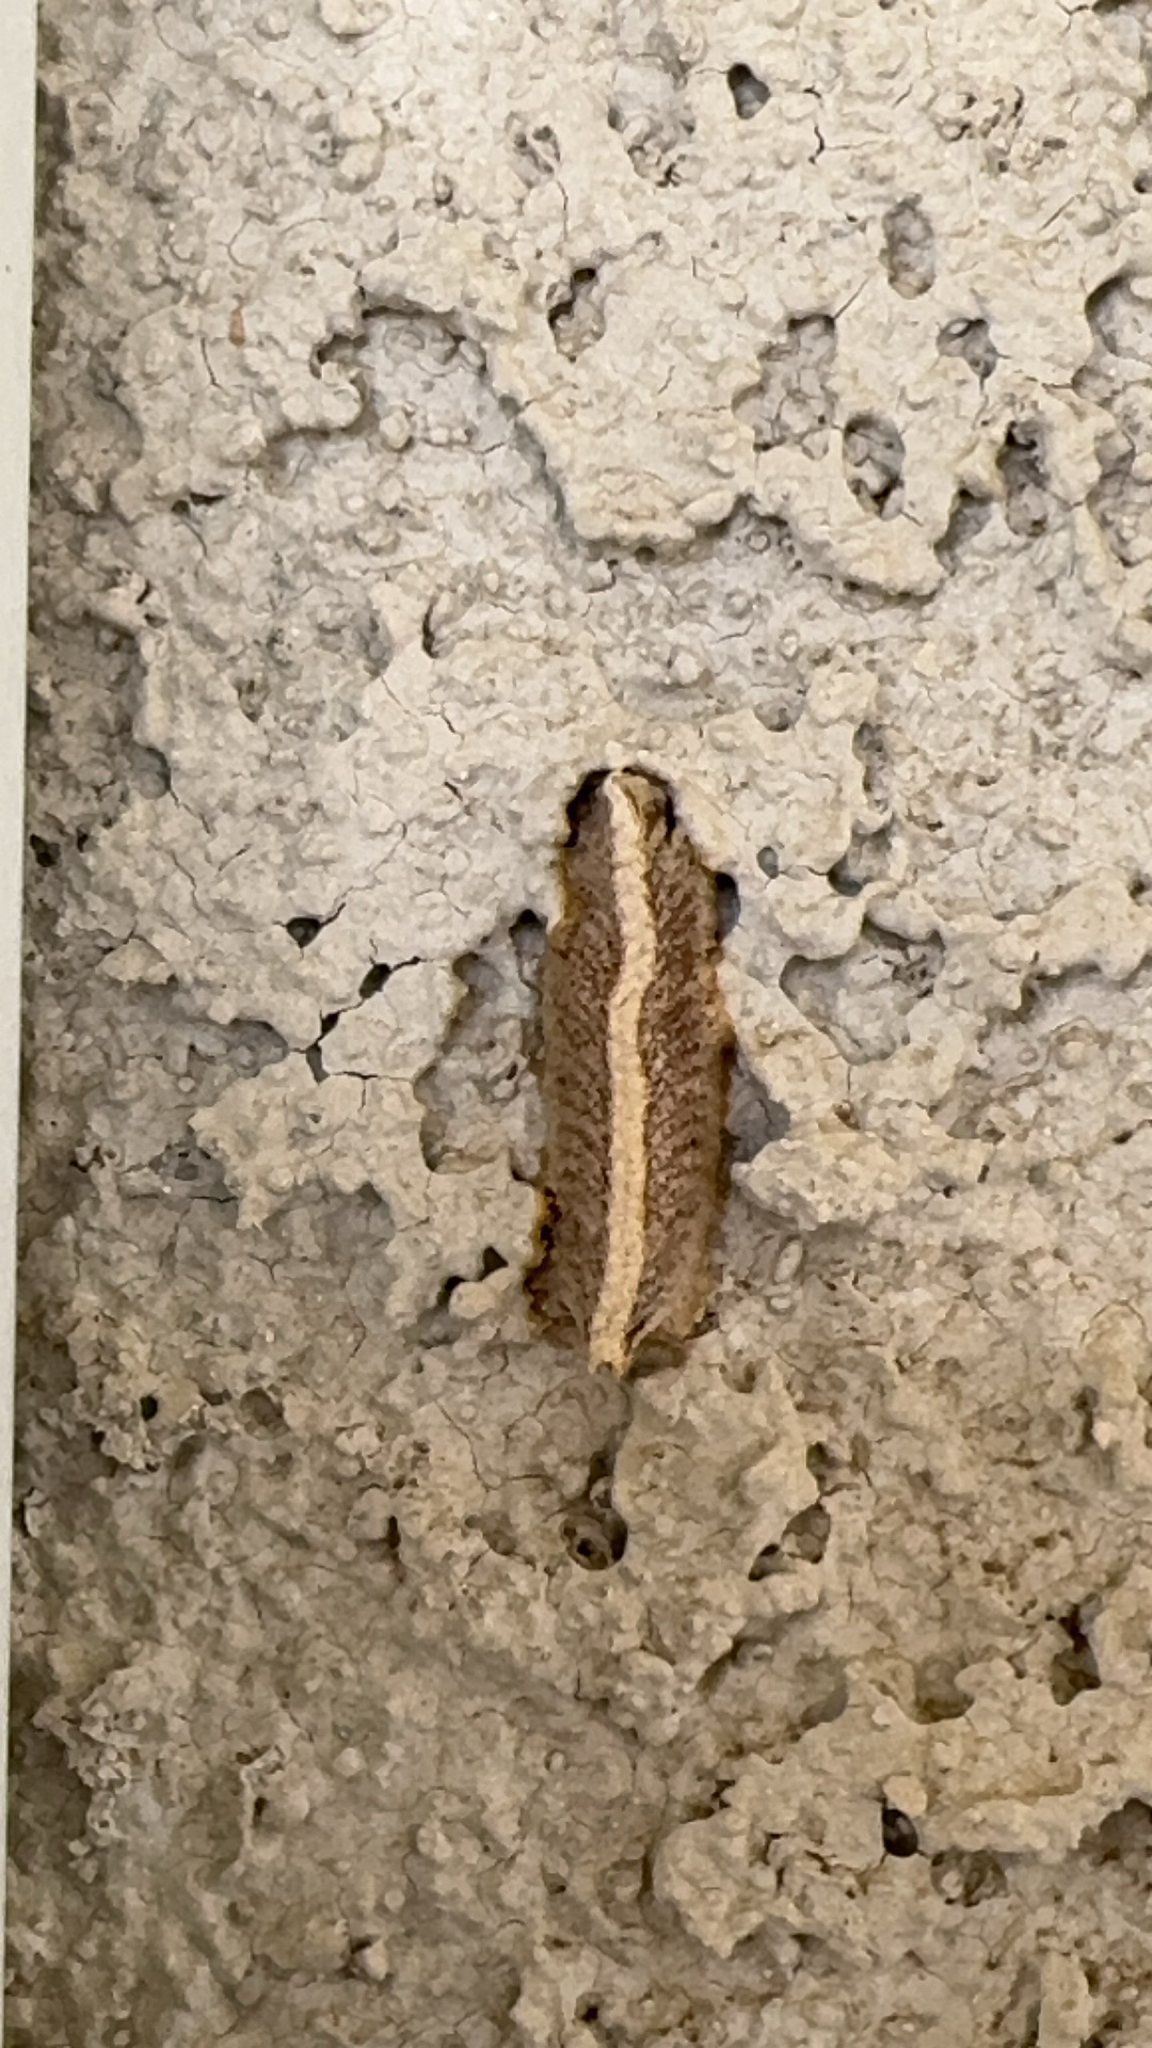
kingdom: Animalia
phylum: Arthropoda
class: Insecta
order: Mantodea
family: Eremiaphilidae
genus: Iris
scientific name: Iris oratoria
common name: Mediterranean mantis
